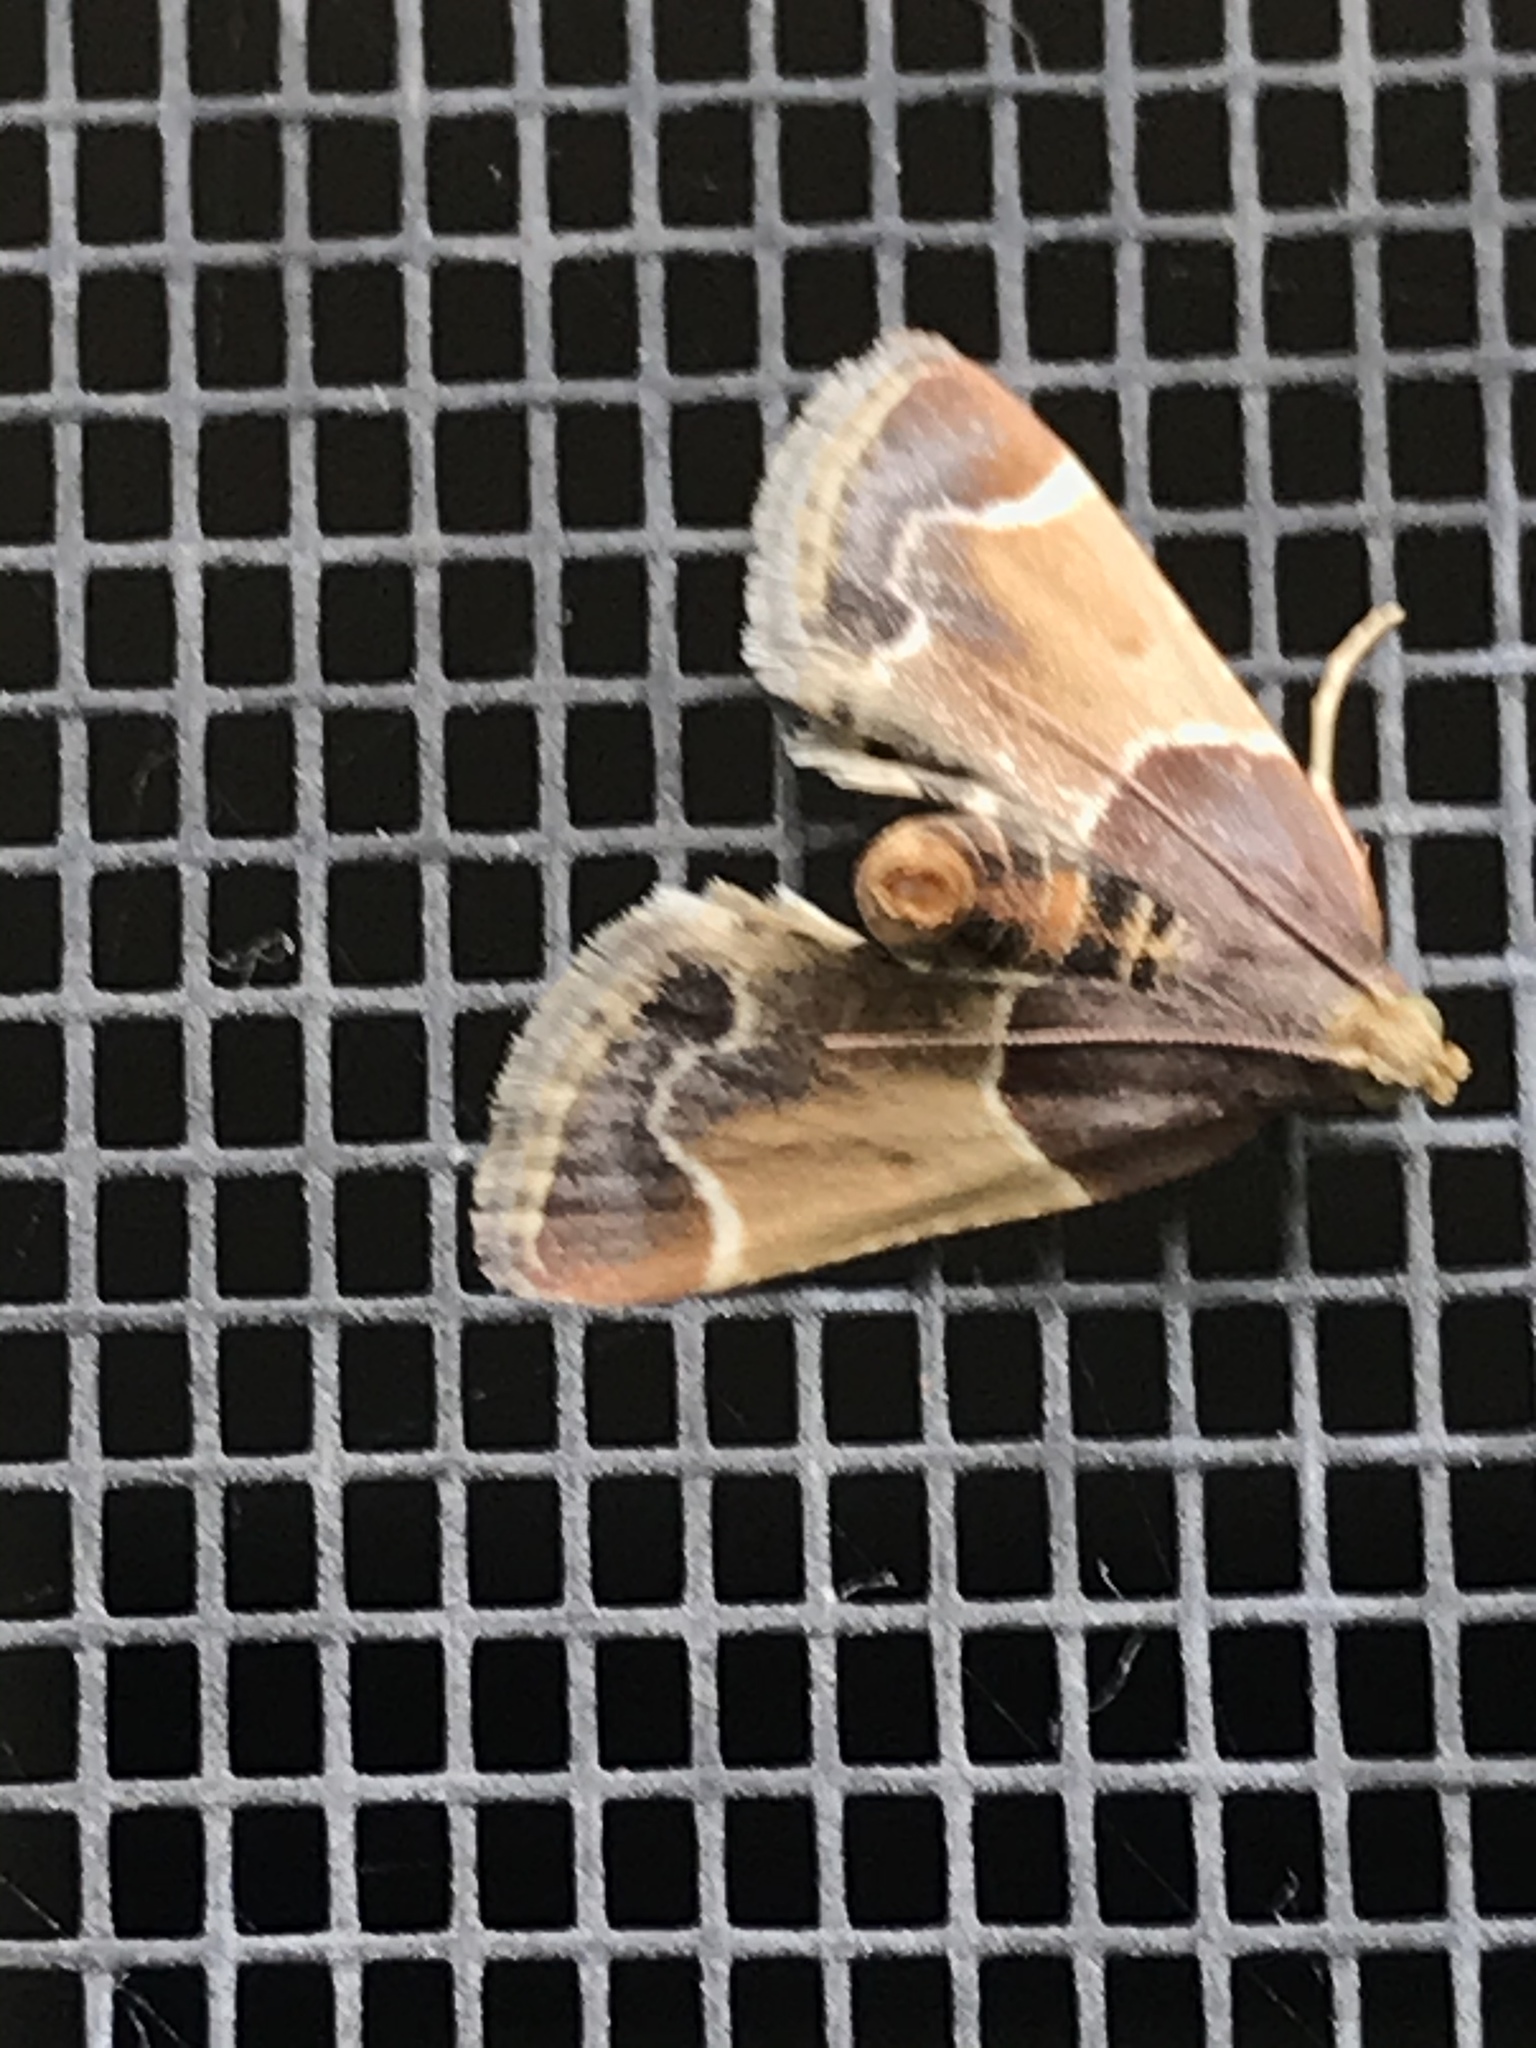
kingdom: Animalia
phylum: Arthropoda
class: Insecta
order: Lepidoptera
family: Pyralidae
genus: Pyralis
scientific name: Pyralis farinalis
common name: Meal moth
